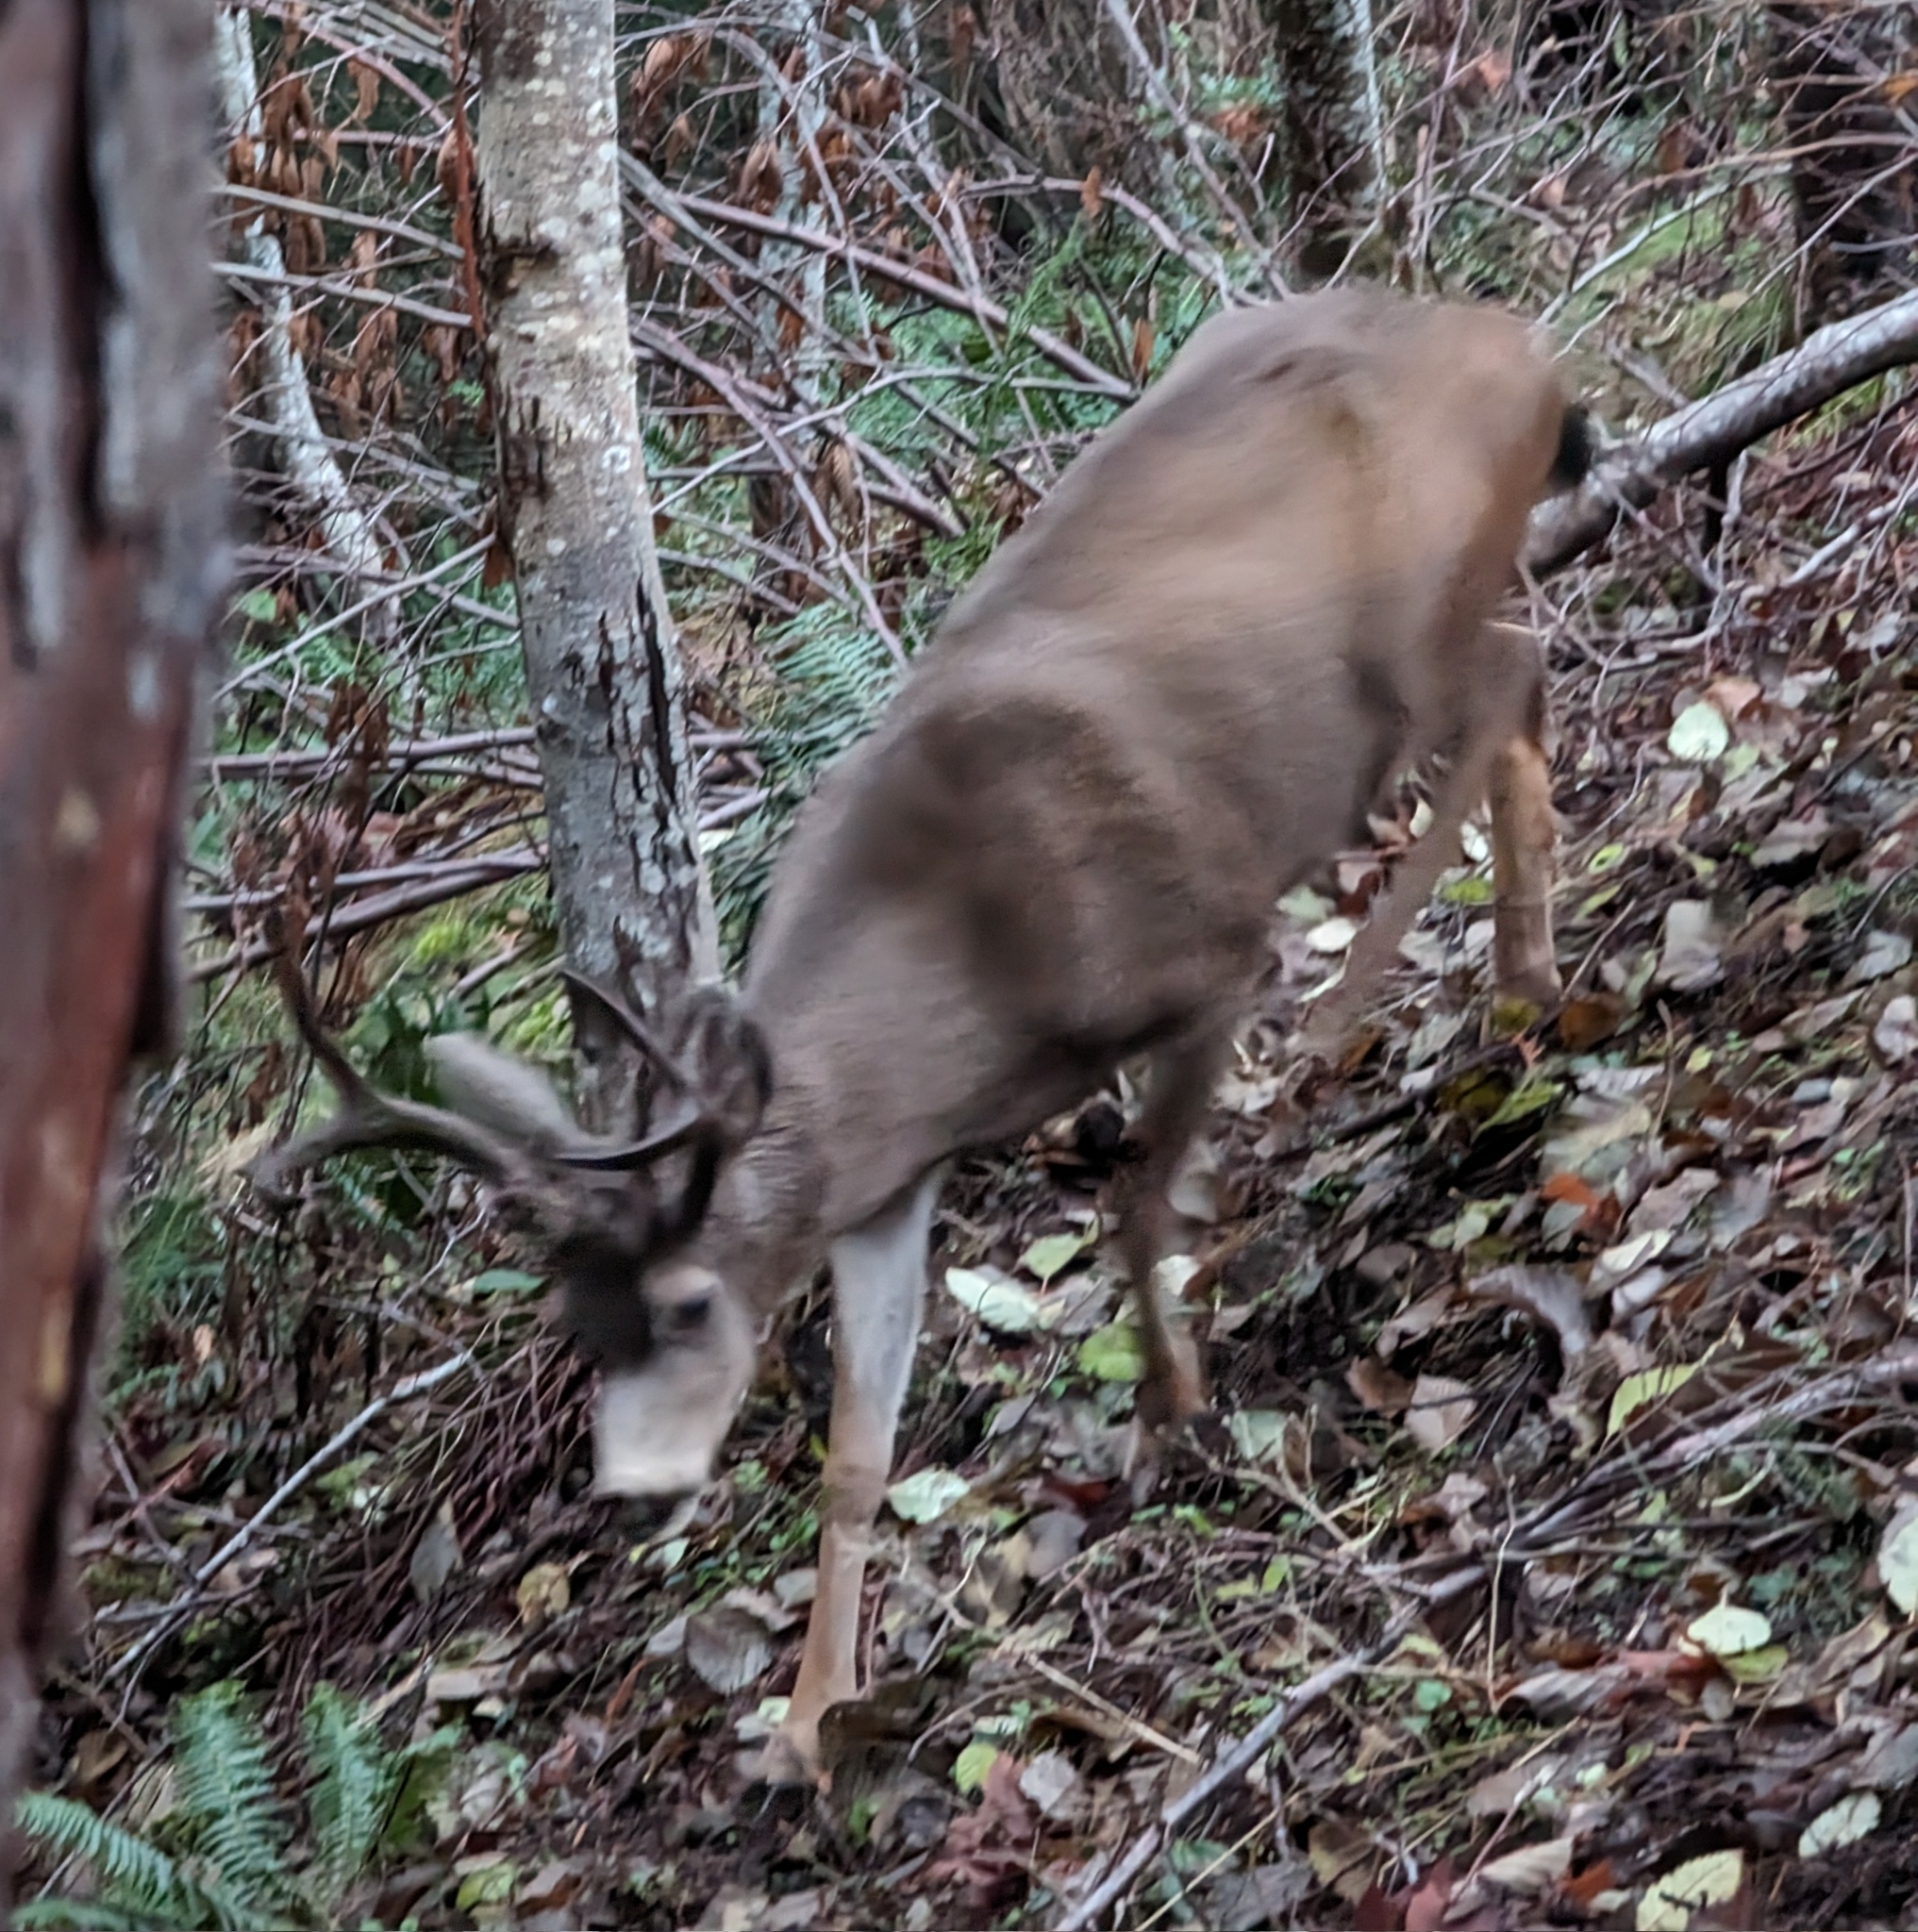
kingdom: Animalia
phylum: Chordata
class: Mammalia
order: Artiodactyla
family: Cervidae
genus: Odocoileus
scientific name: Odocoileus hemionus
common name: Mule deer
